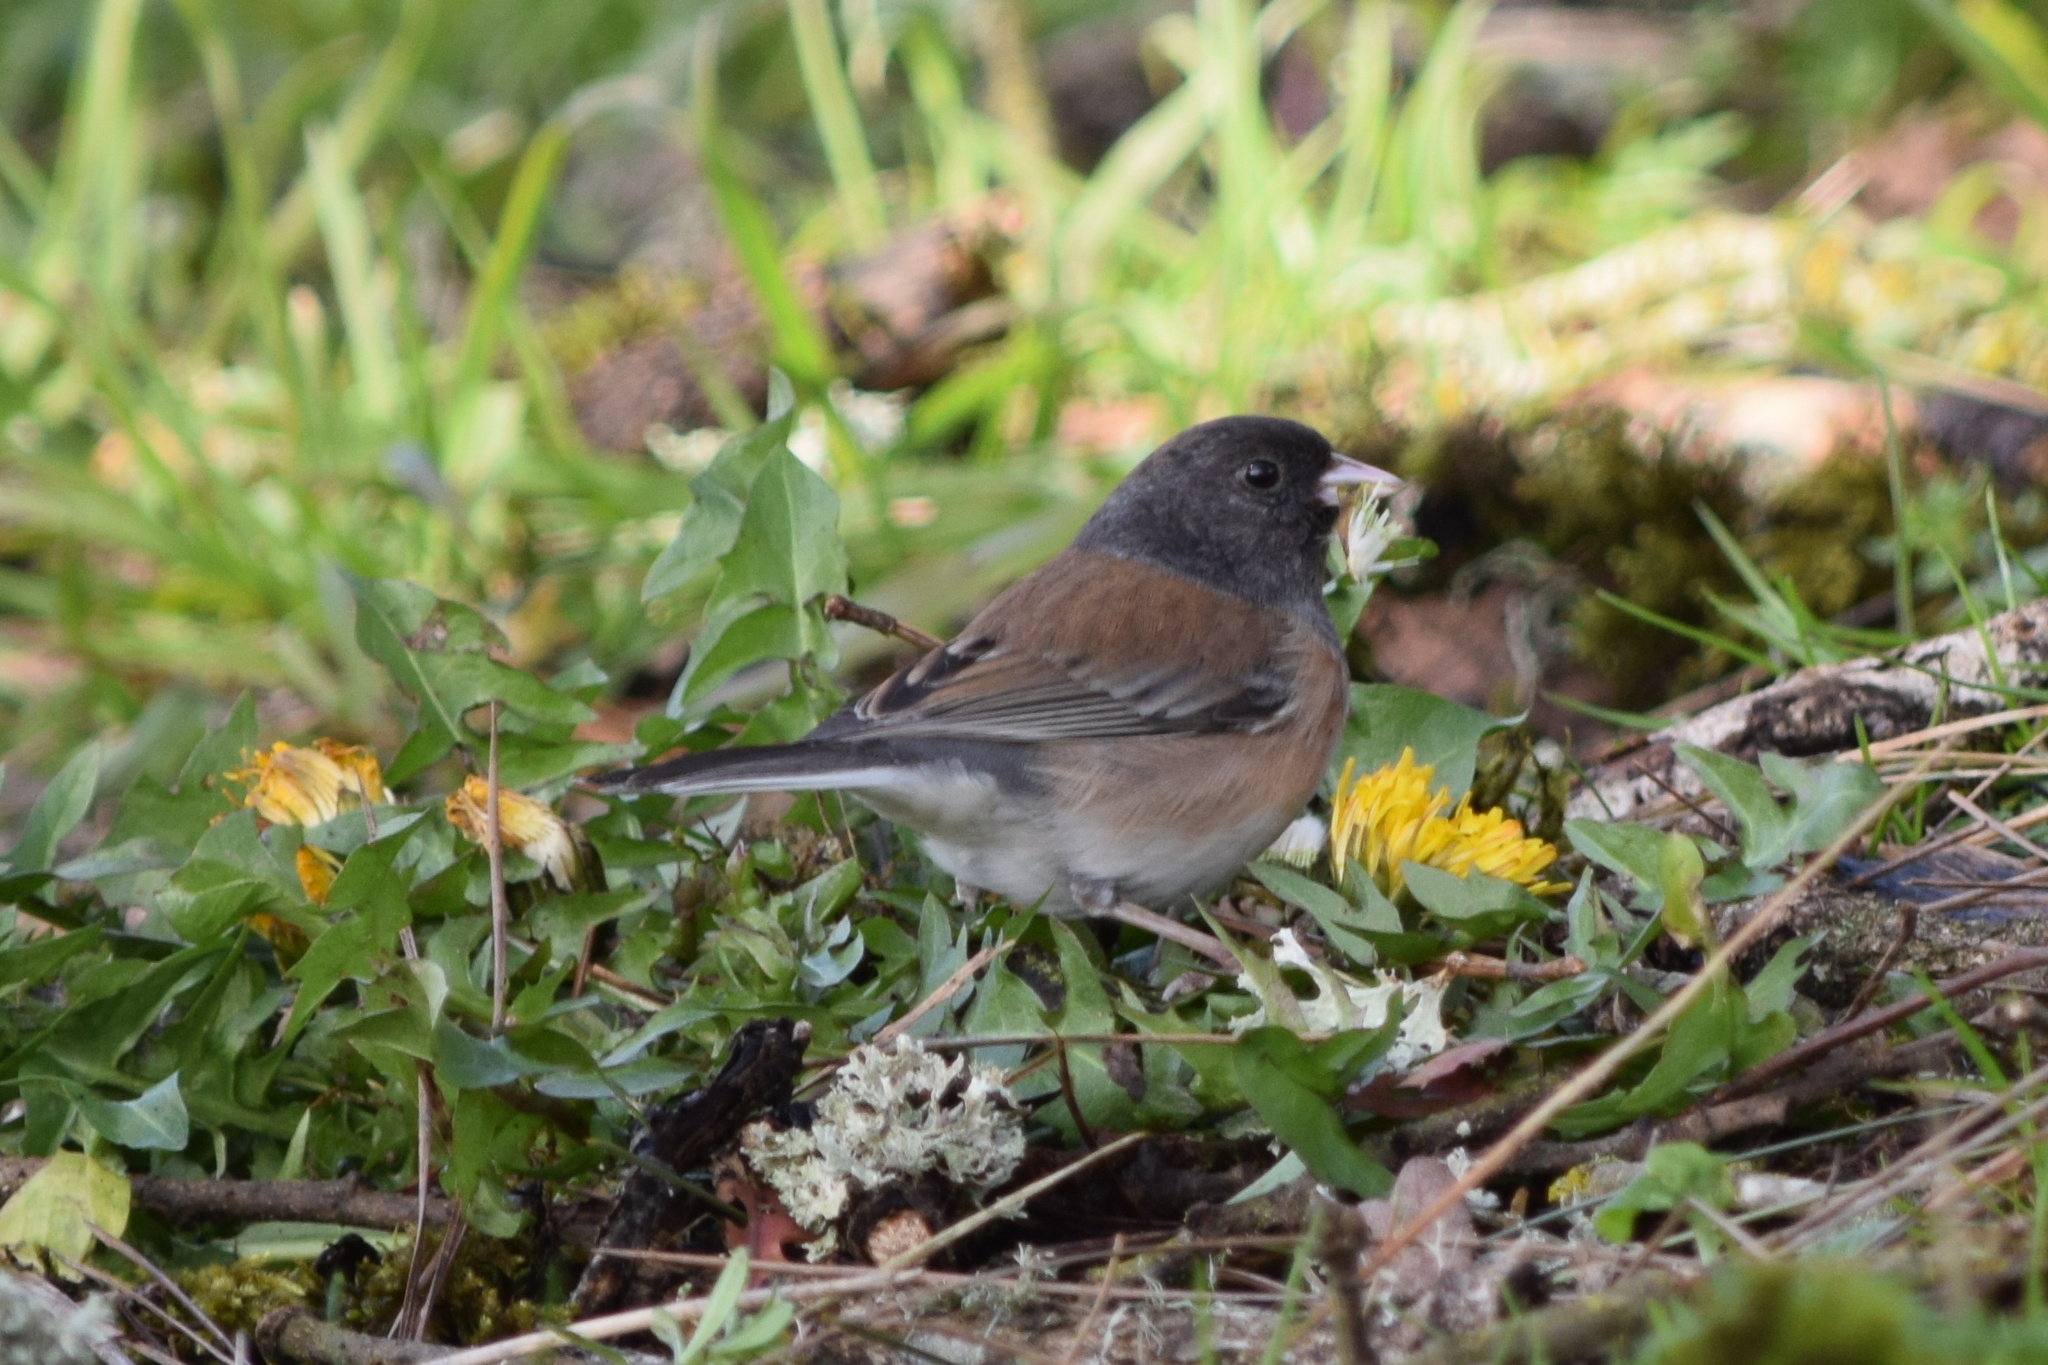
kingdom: Animalia
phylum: Chordata
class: Aves
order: Passeriformes
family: Passerellidae
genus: Junco
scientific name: Junco hyemalis
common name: Dark-eyed junco
